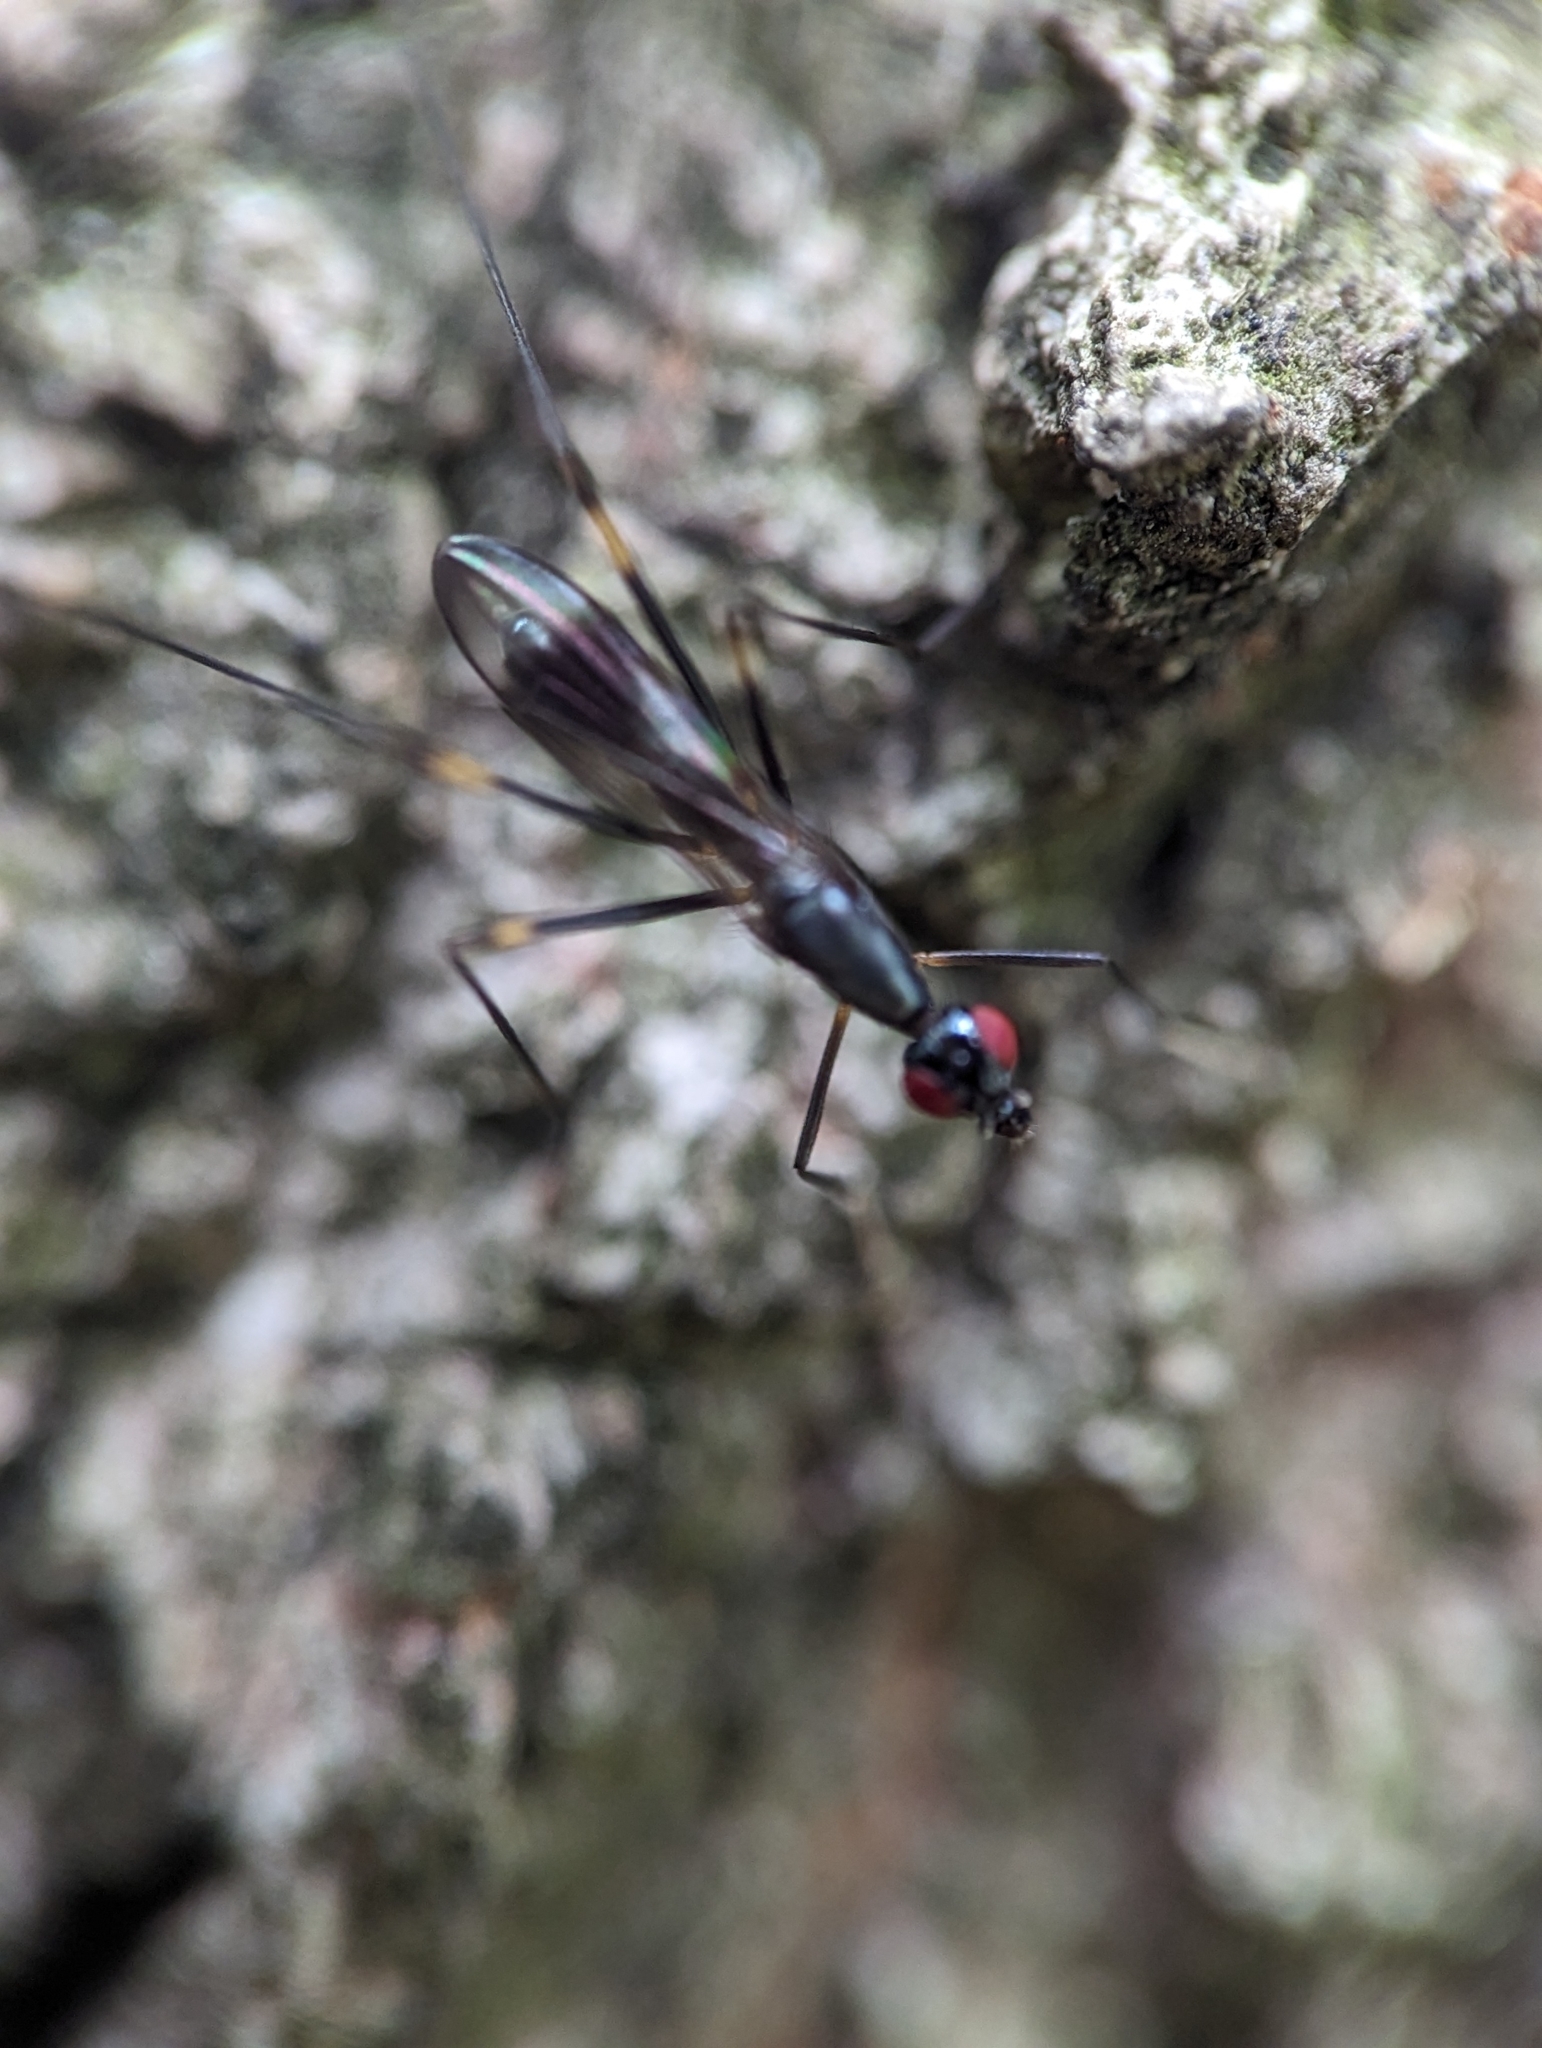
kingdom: Animalia
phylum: Arthropoda
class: Insecta
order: Diptera
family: Micropezidae
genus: Rainieria
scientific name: Rainieria antennaepes
